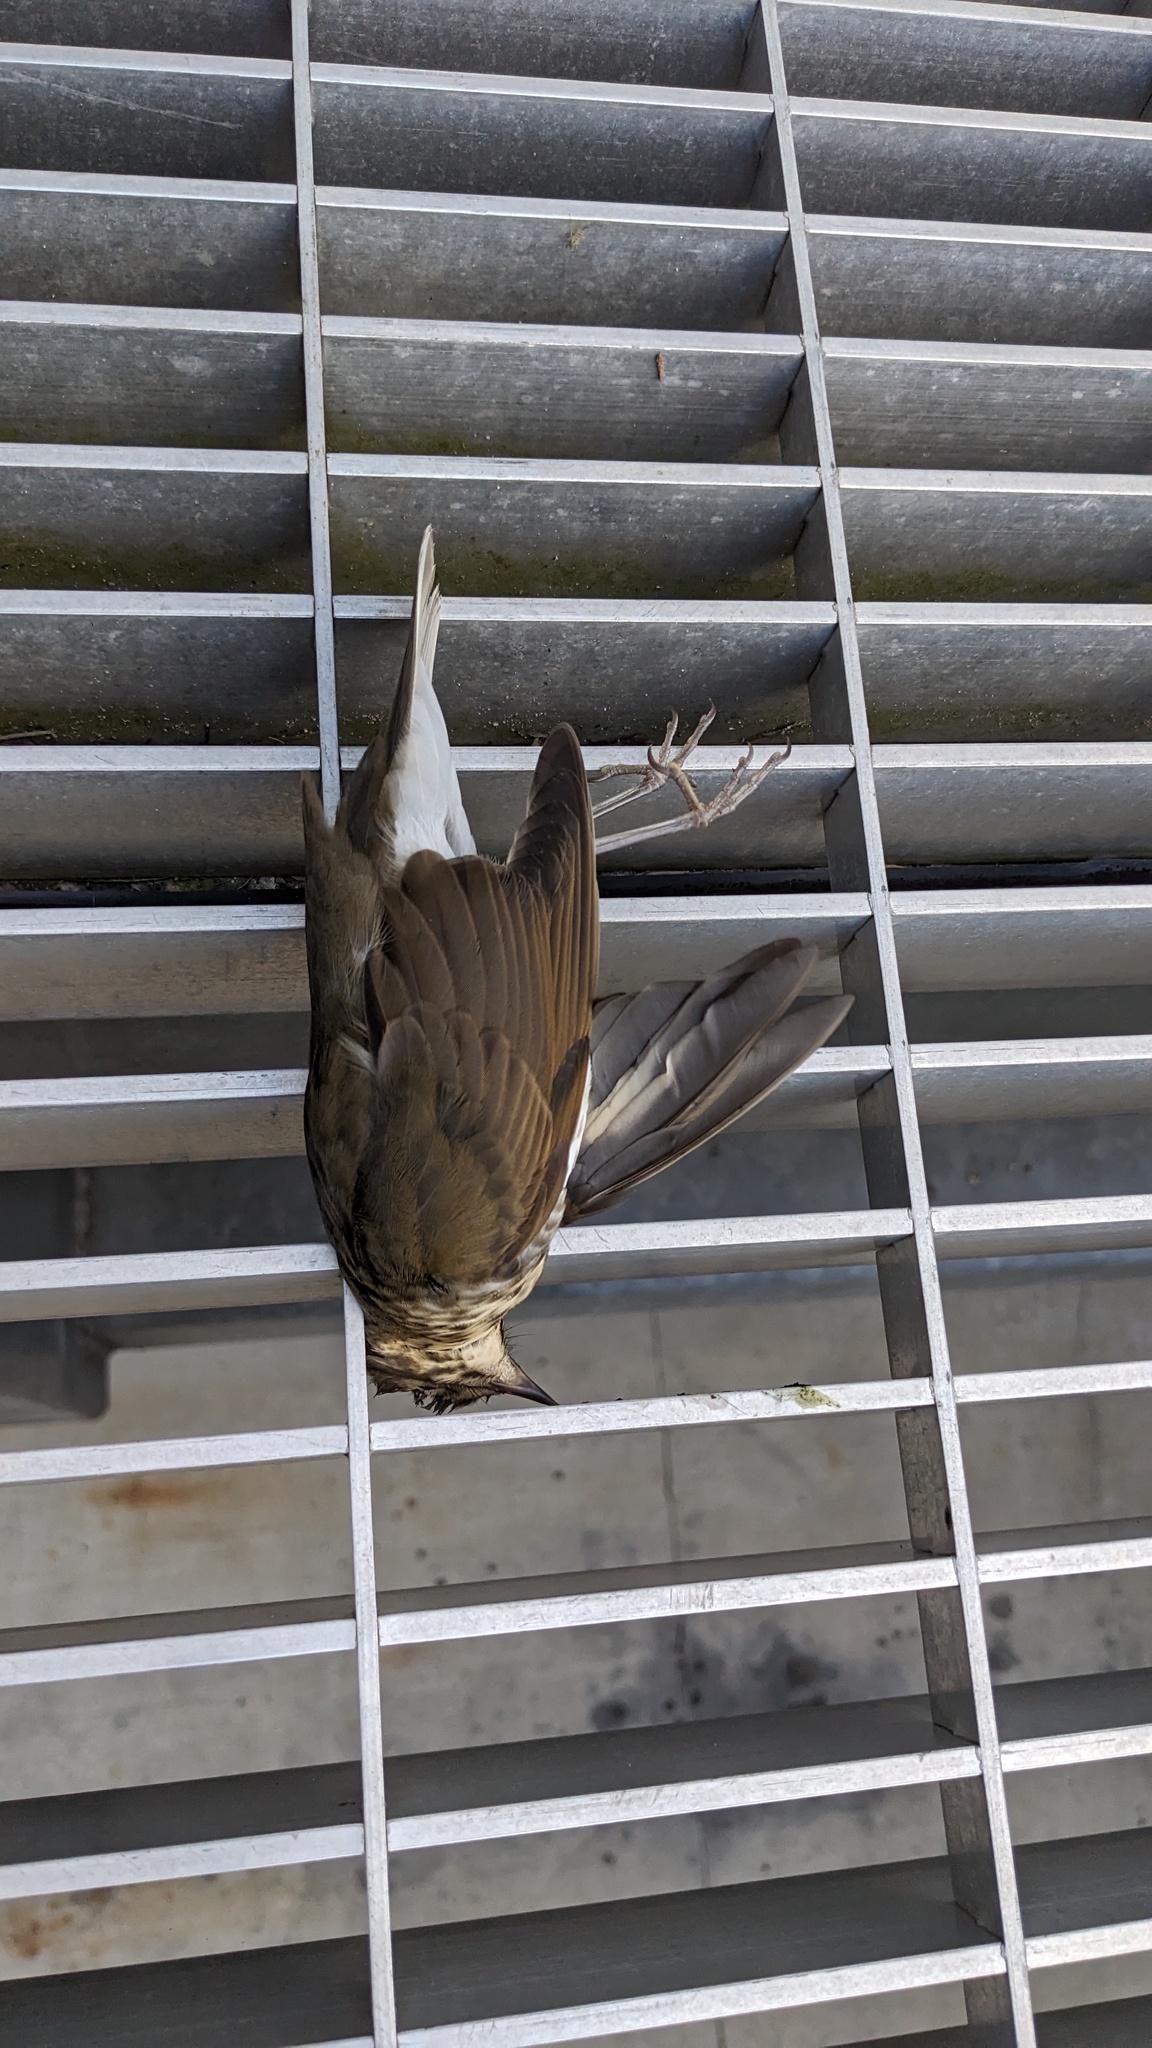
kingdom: Animalia
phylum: Chordata
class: Aves
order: Passeriformes
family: Turdidae
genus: Catharus
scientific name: Catharus ustulatus
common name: Swainson's thrush
